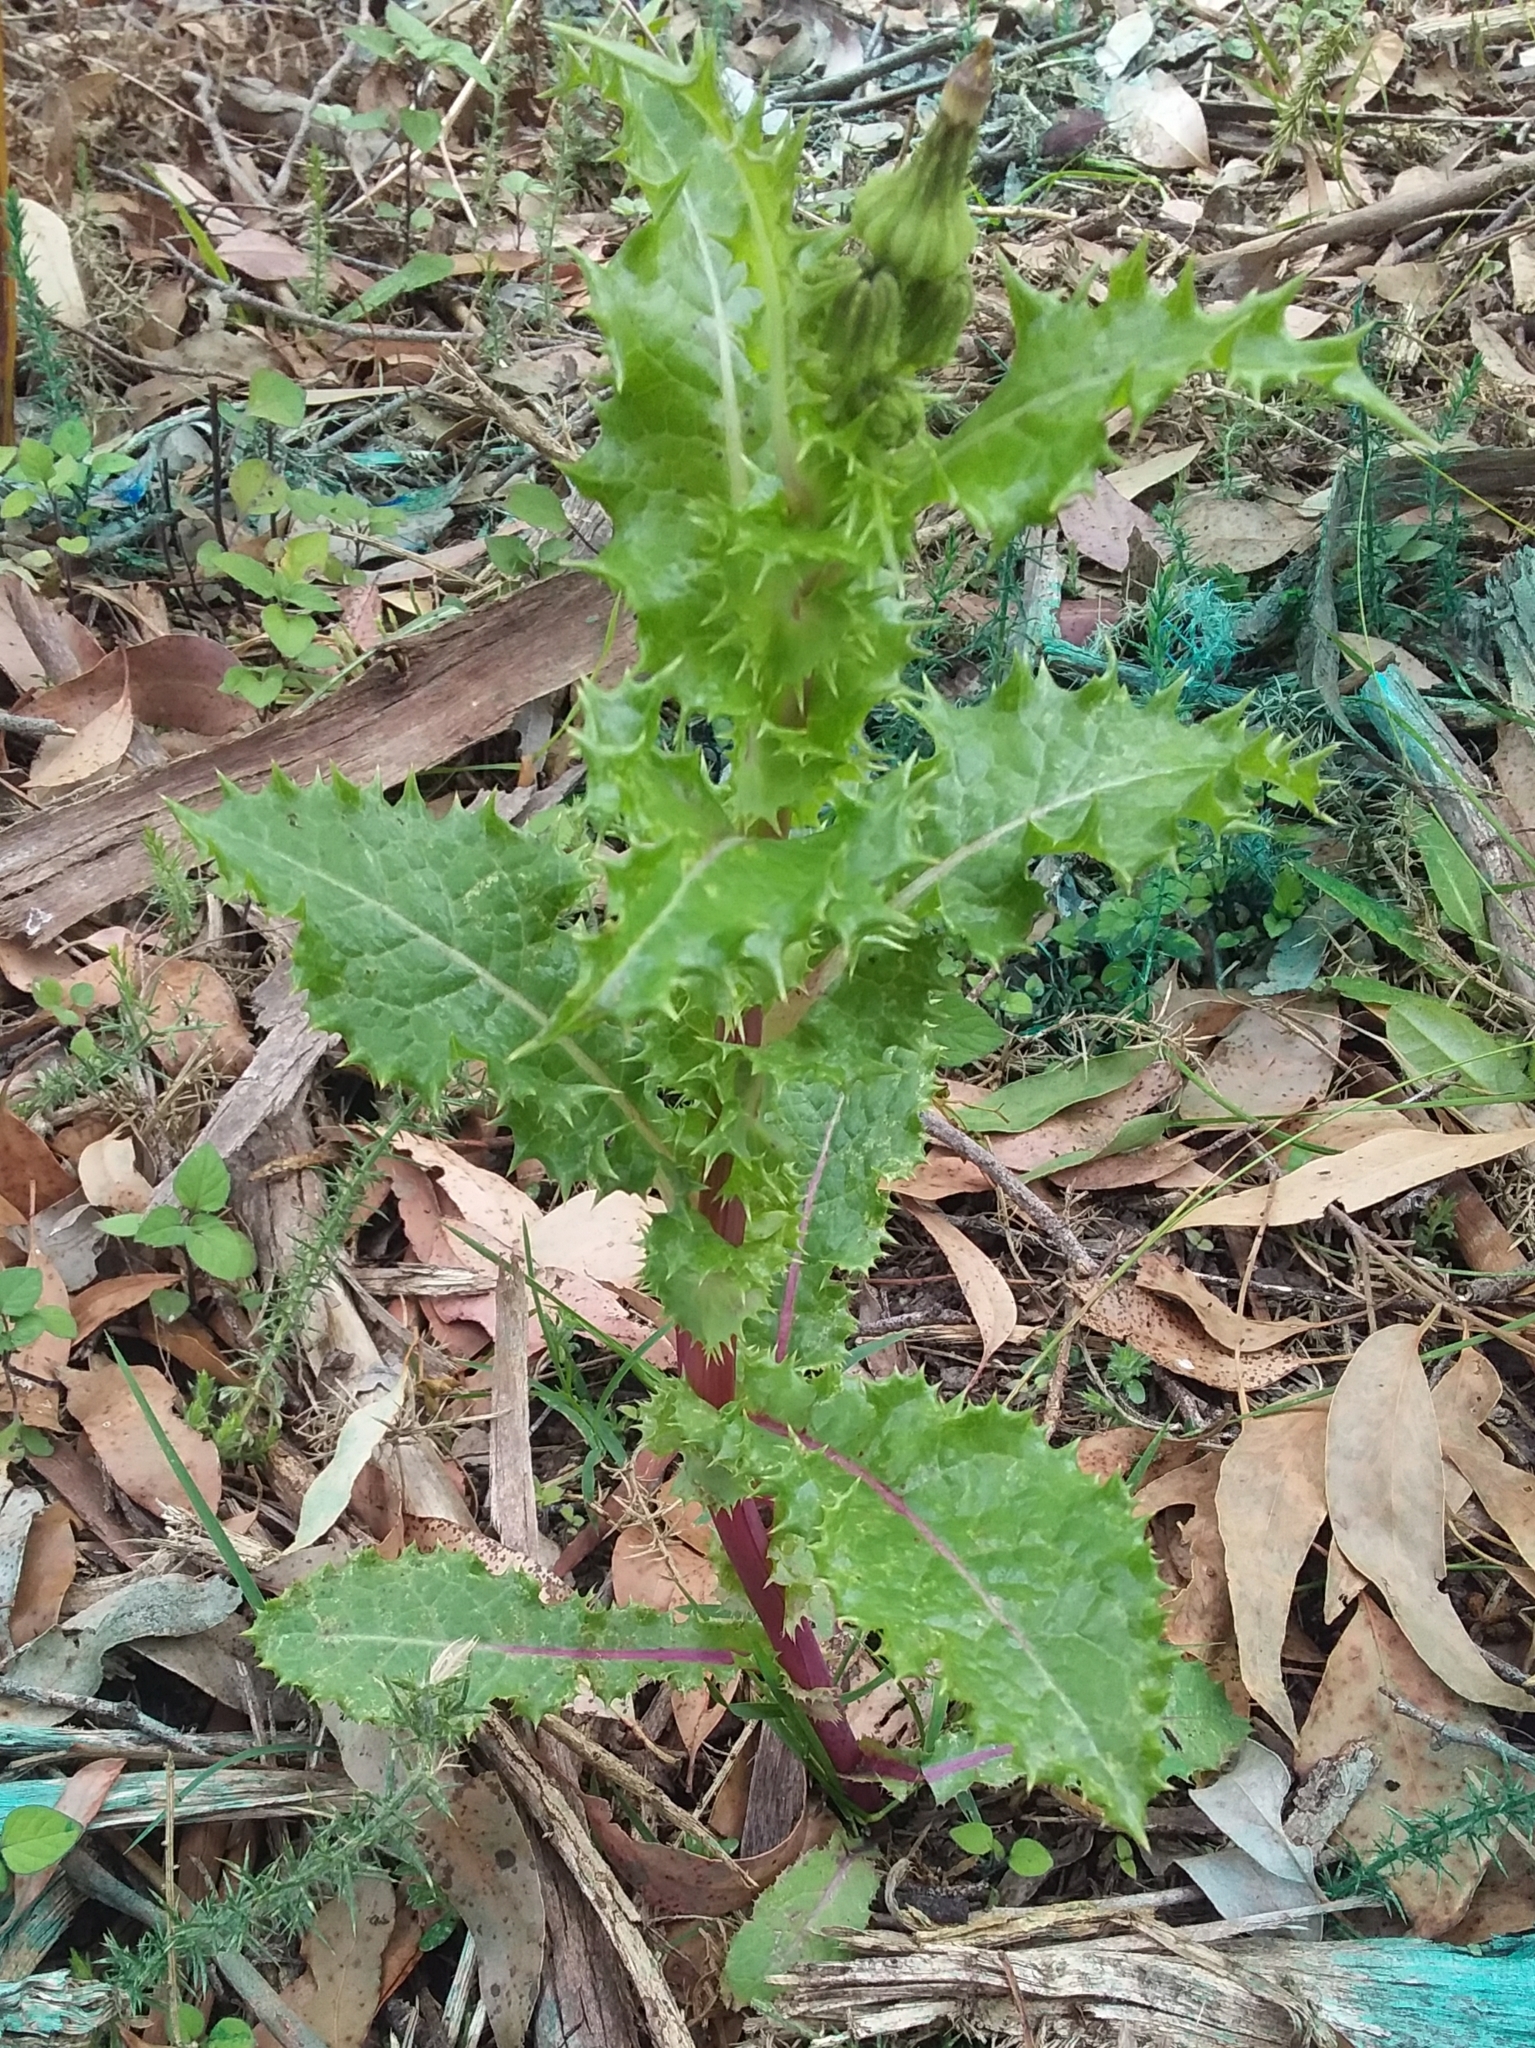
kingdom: Plantae
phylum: Tracheophyta
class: Magnoliopsida
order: Asterales
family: Asteraceae
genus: Sonchus
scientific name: Sonchus asper
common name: Prickly sow-thistle
